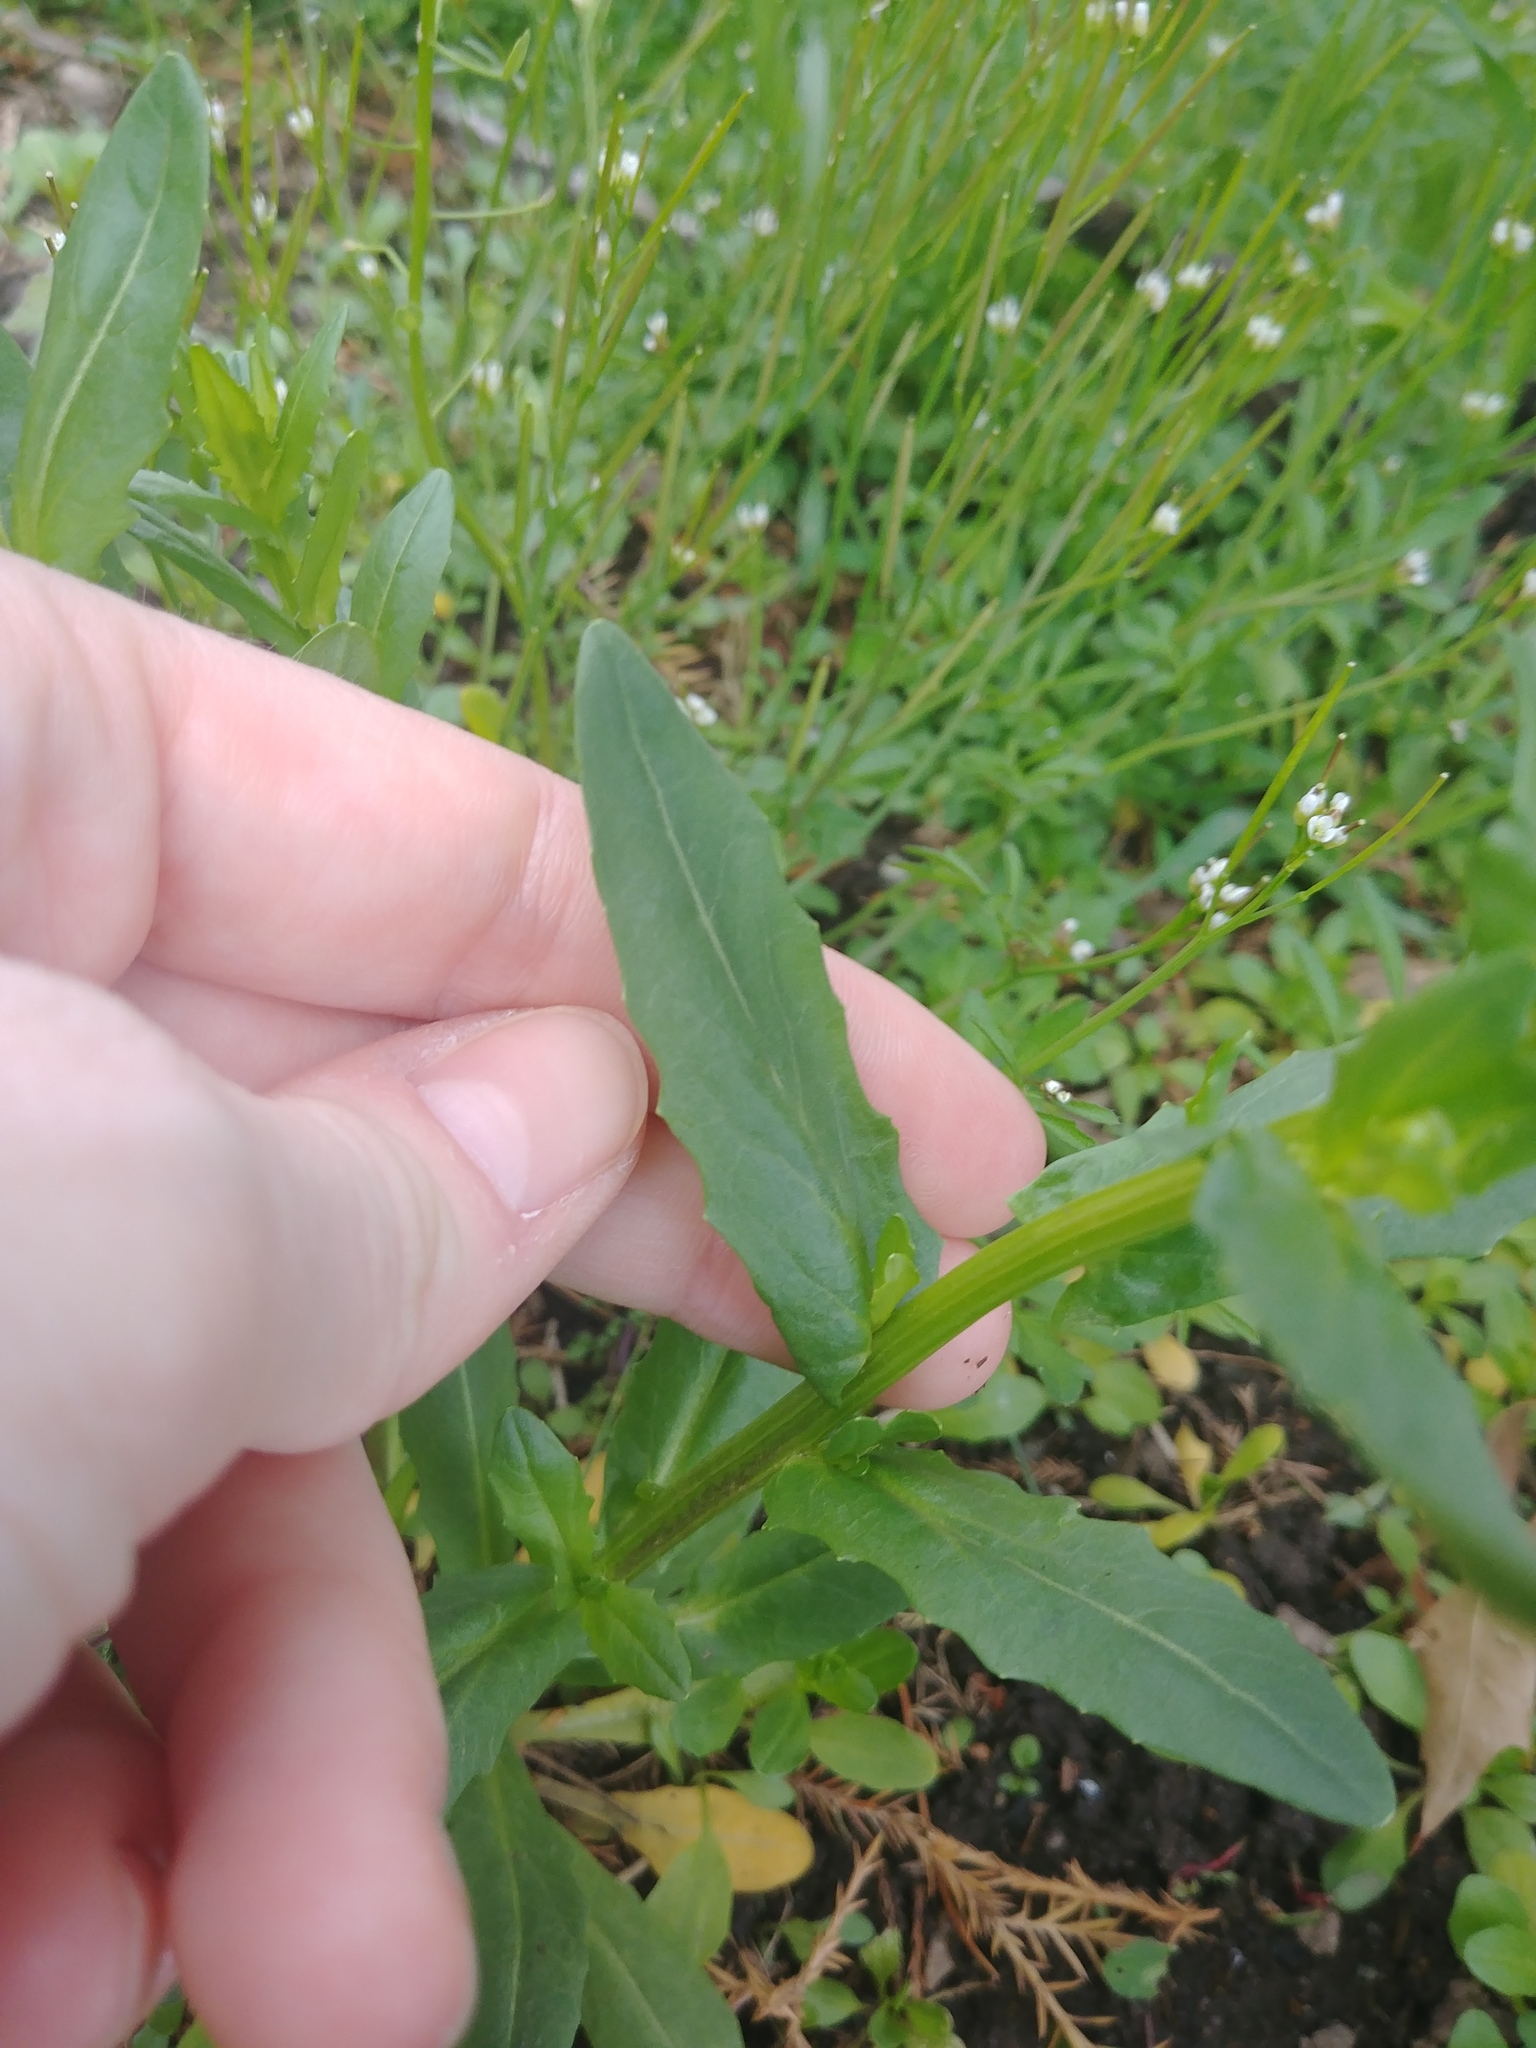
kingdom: Plantae
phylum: Tracheophyta
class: Magnoliopsida
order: Brassicales
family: Brassicaceae
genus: Thlaspi
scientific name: Thlaspi arvense
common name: Field pennycress
